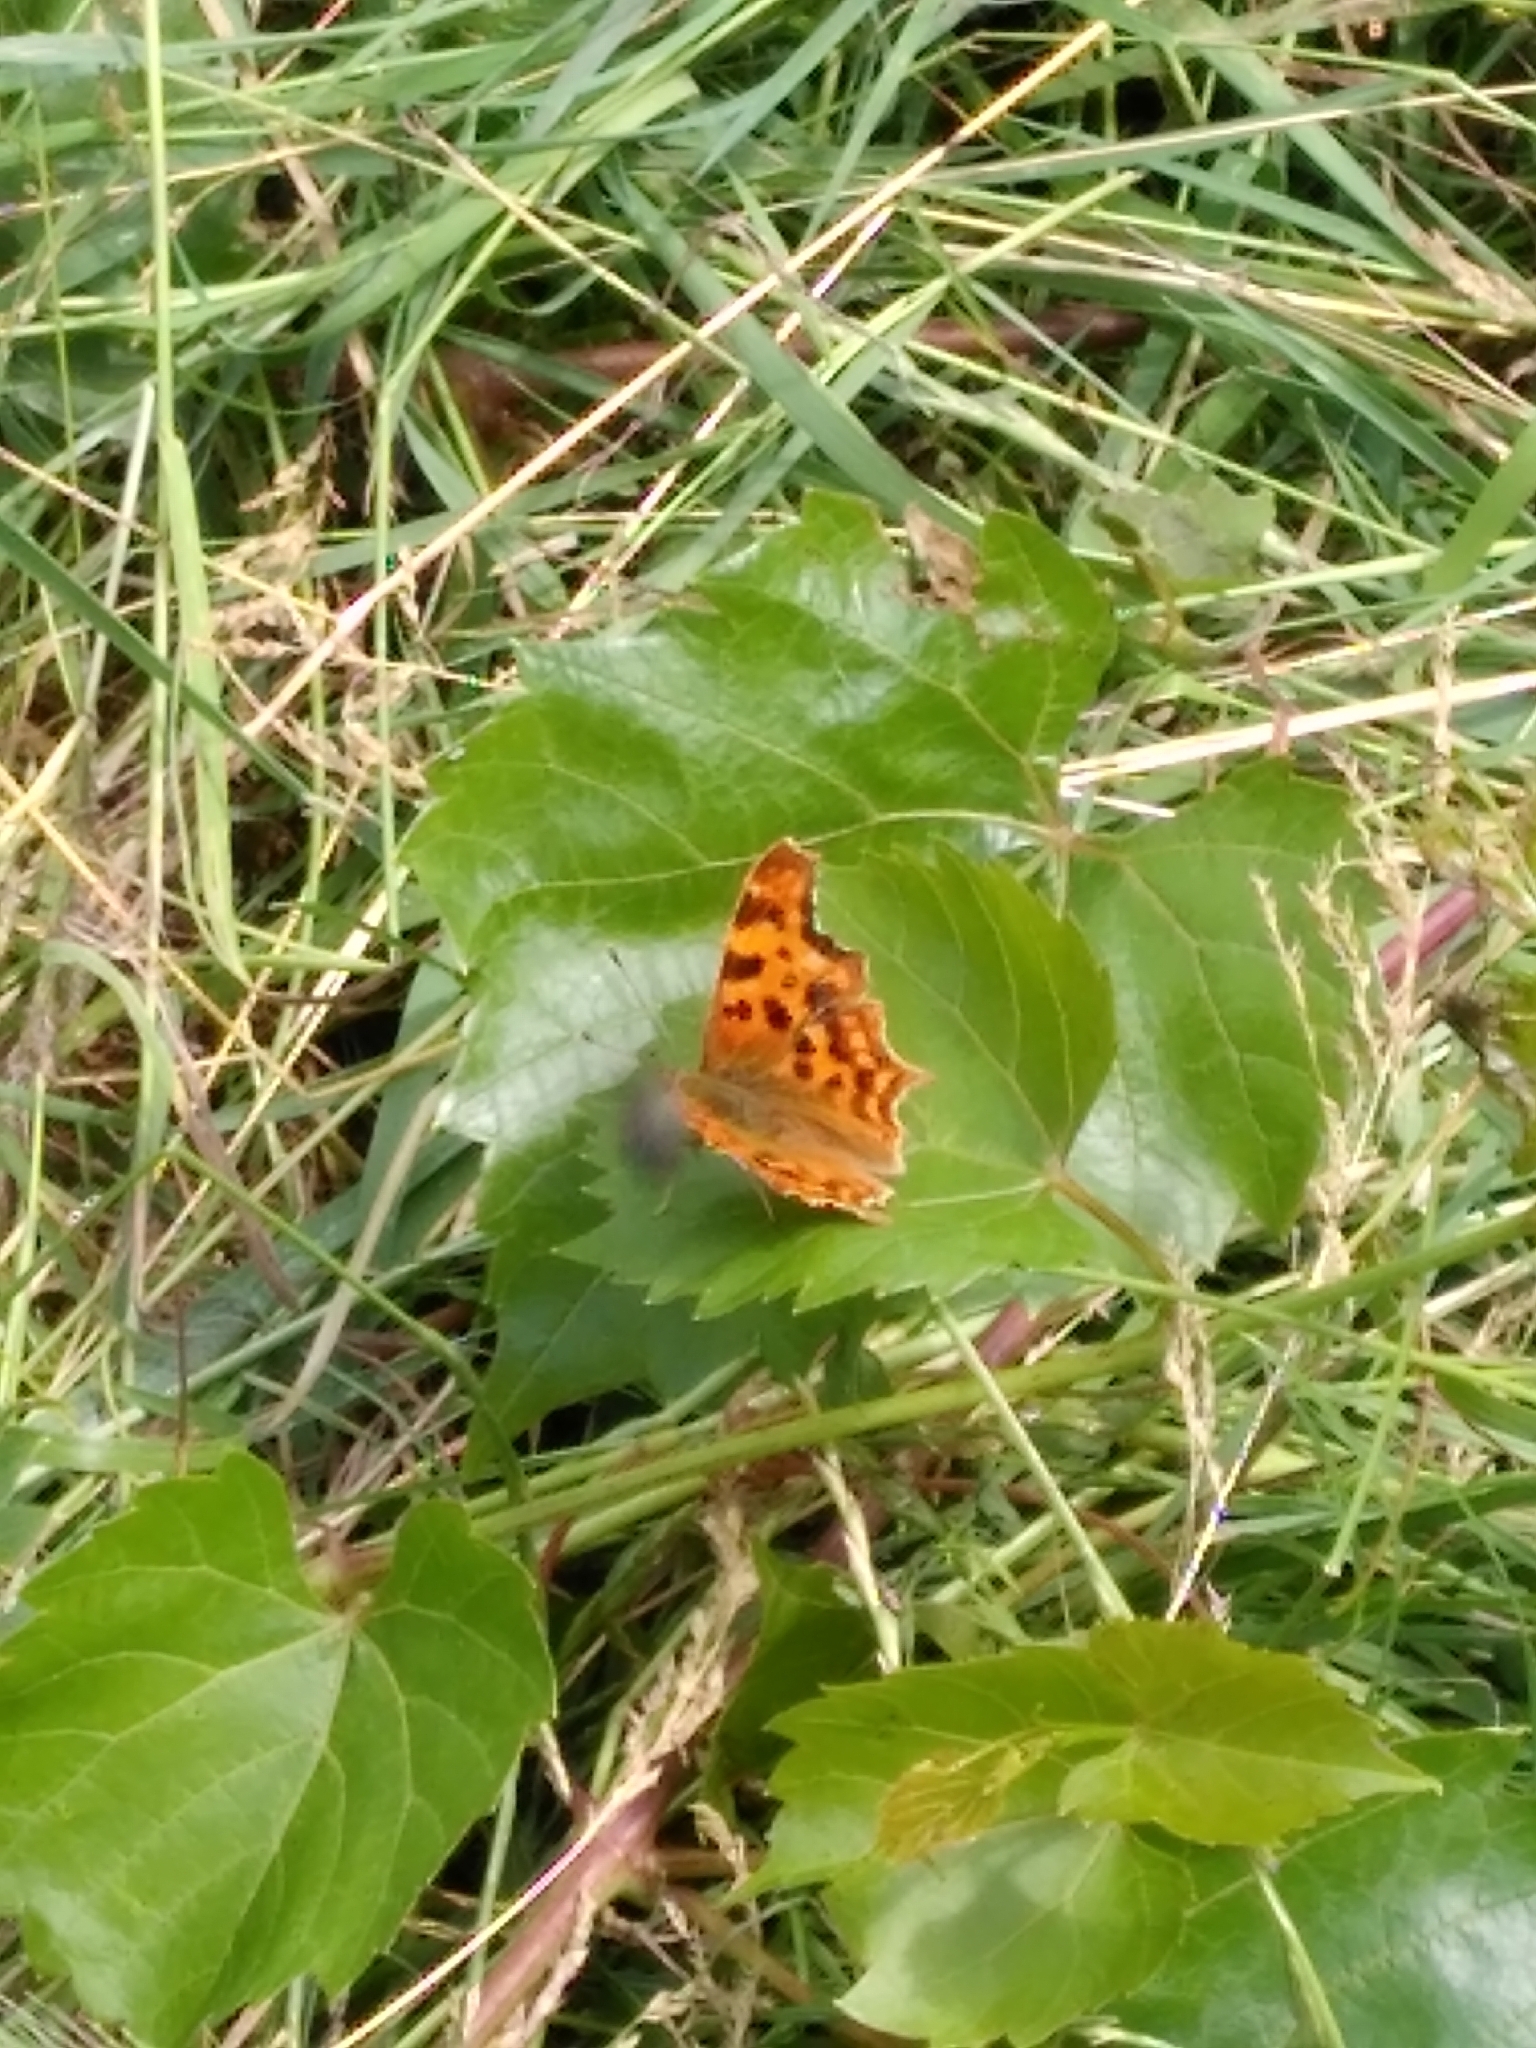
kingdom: Animalia
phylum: Arthropoda
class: Insecta
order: Lepidoptera
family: Nymphalidae
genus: Polygonia
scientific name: Polygonia c-album
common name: Comma
